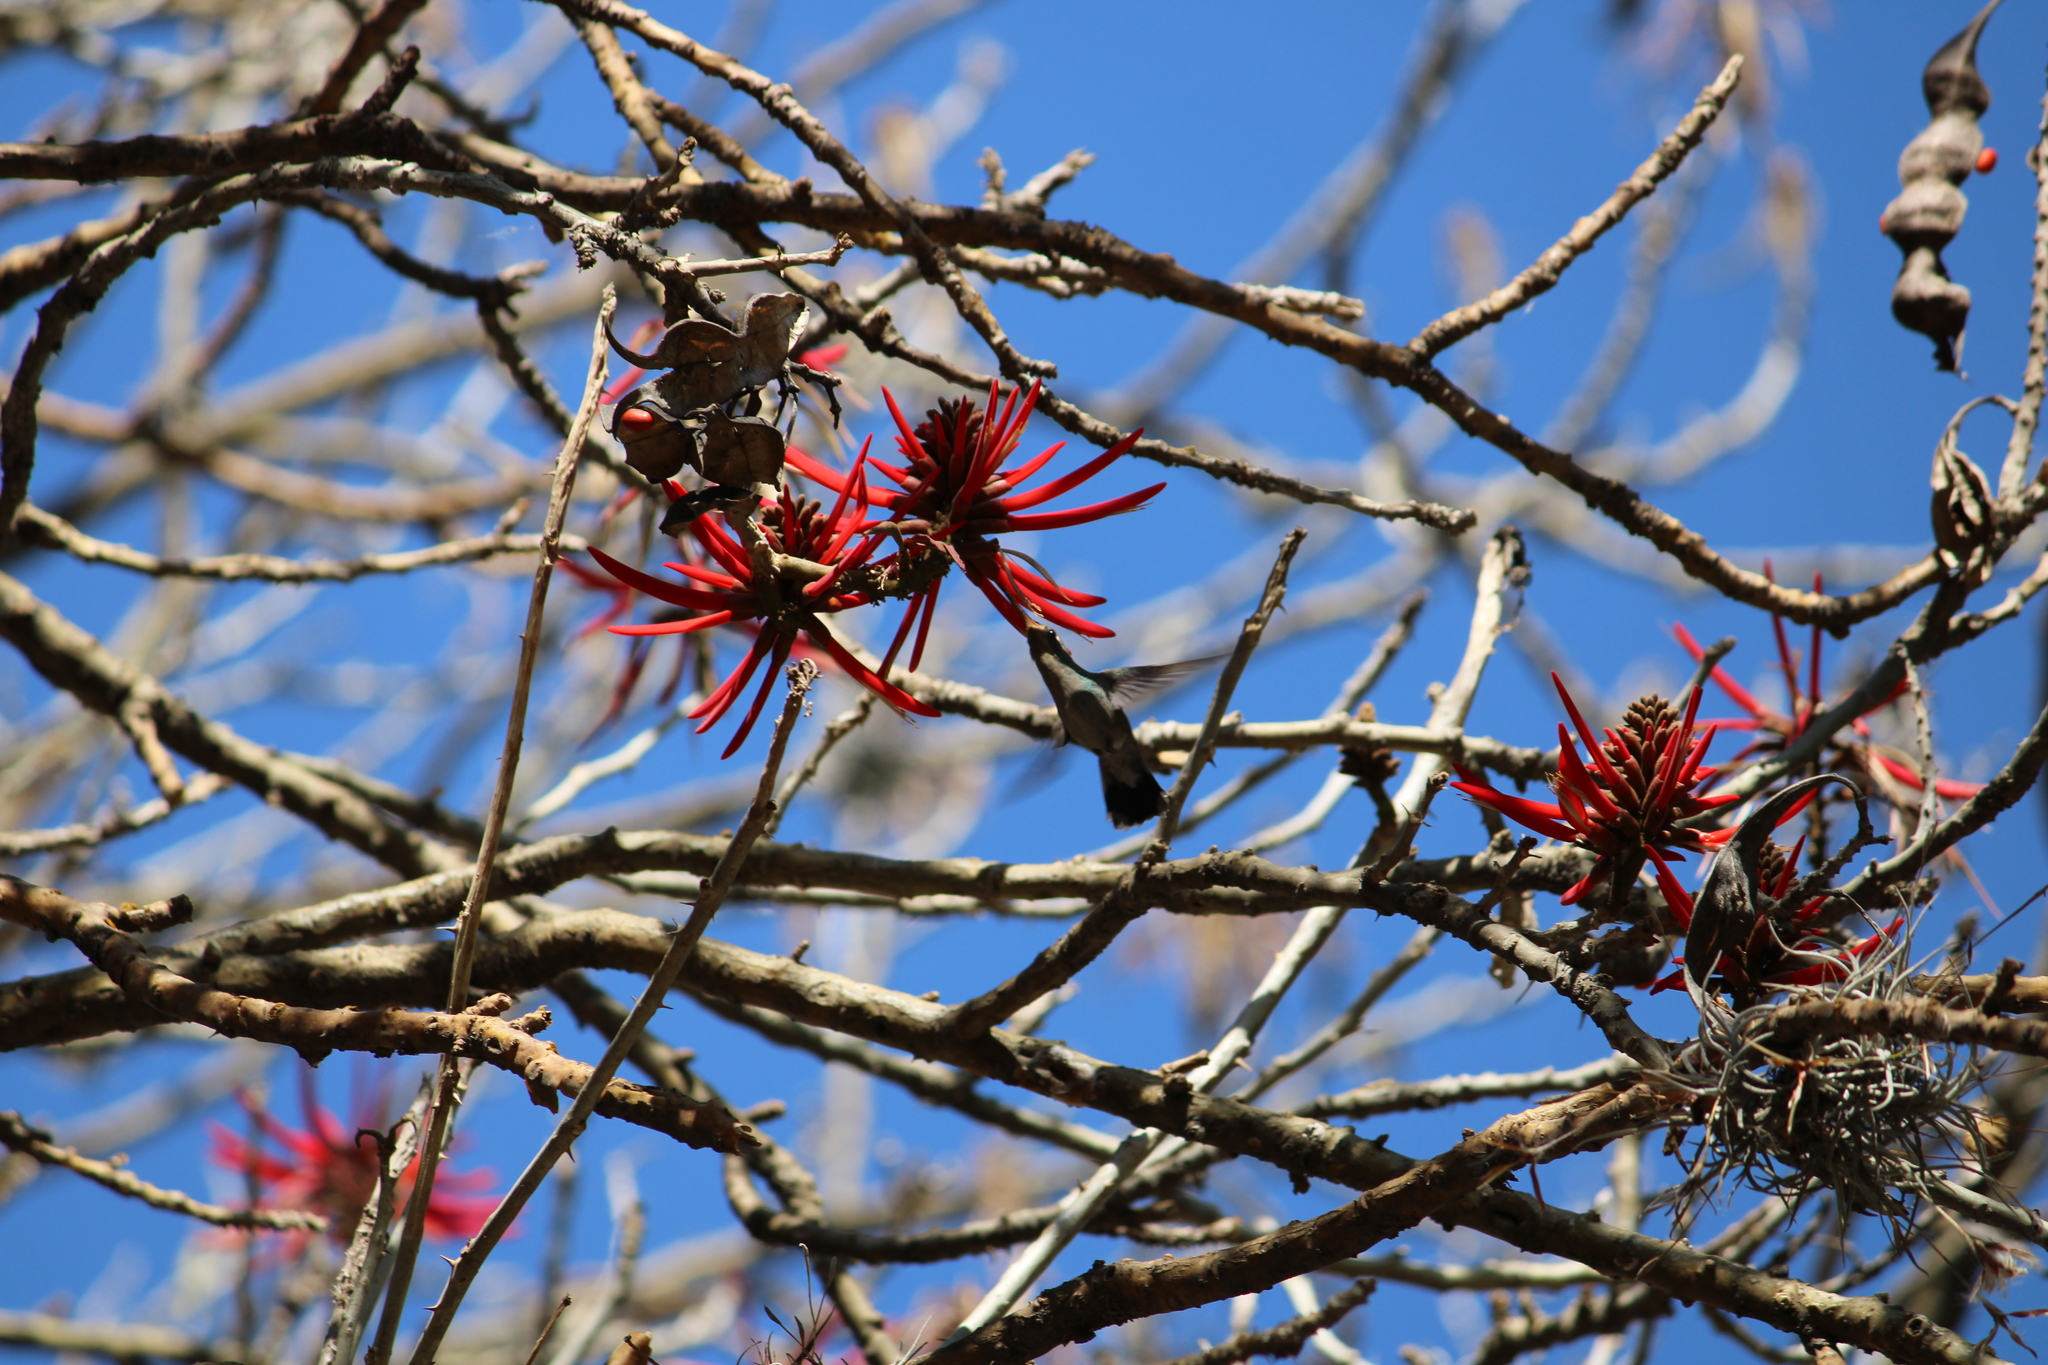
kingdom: Animalia
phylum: Chordata
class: Aves
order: Apodiformes
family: Trochilidae
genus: Cynanthus
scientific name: Cynanthus latirostris
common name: Broad-billed hummingbird
